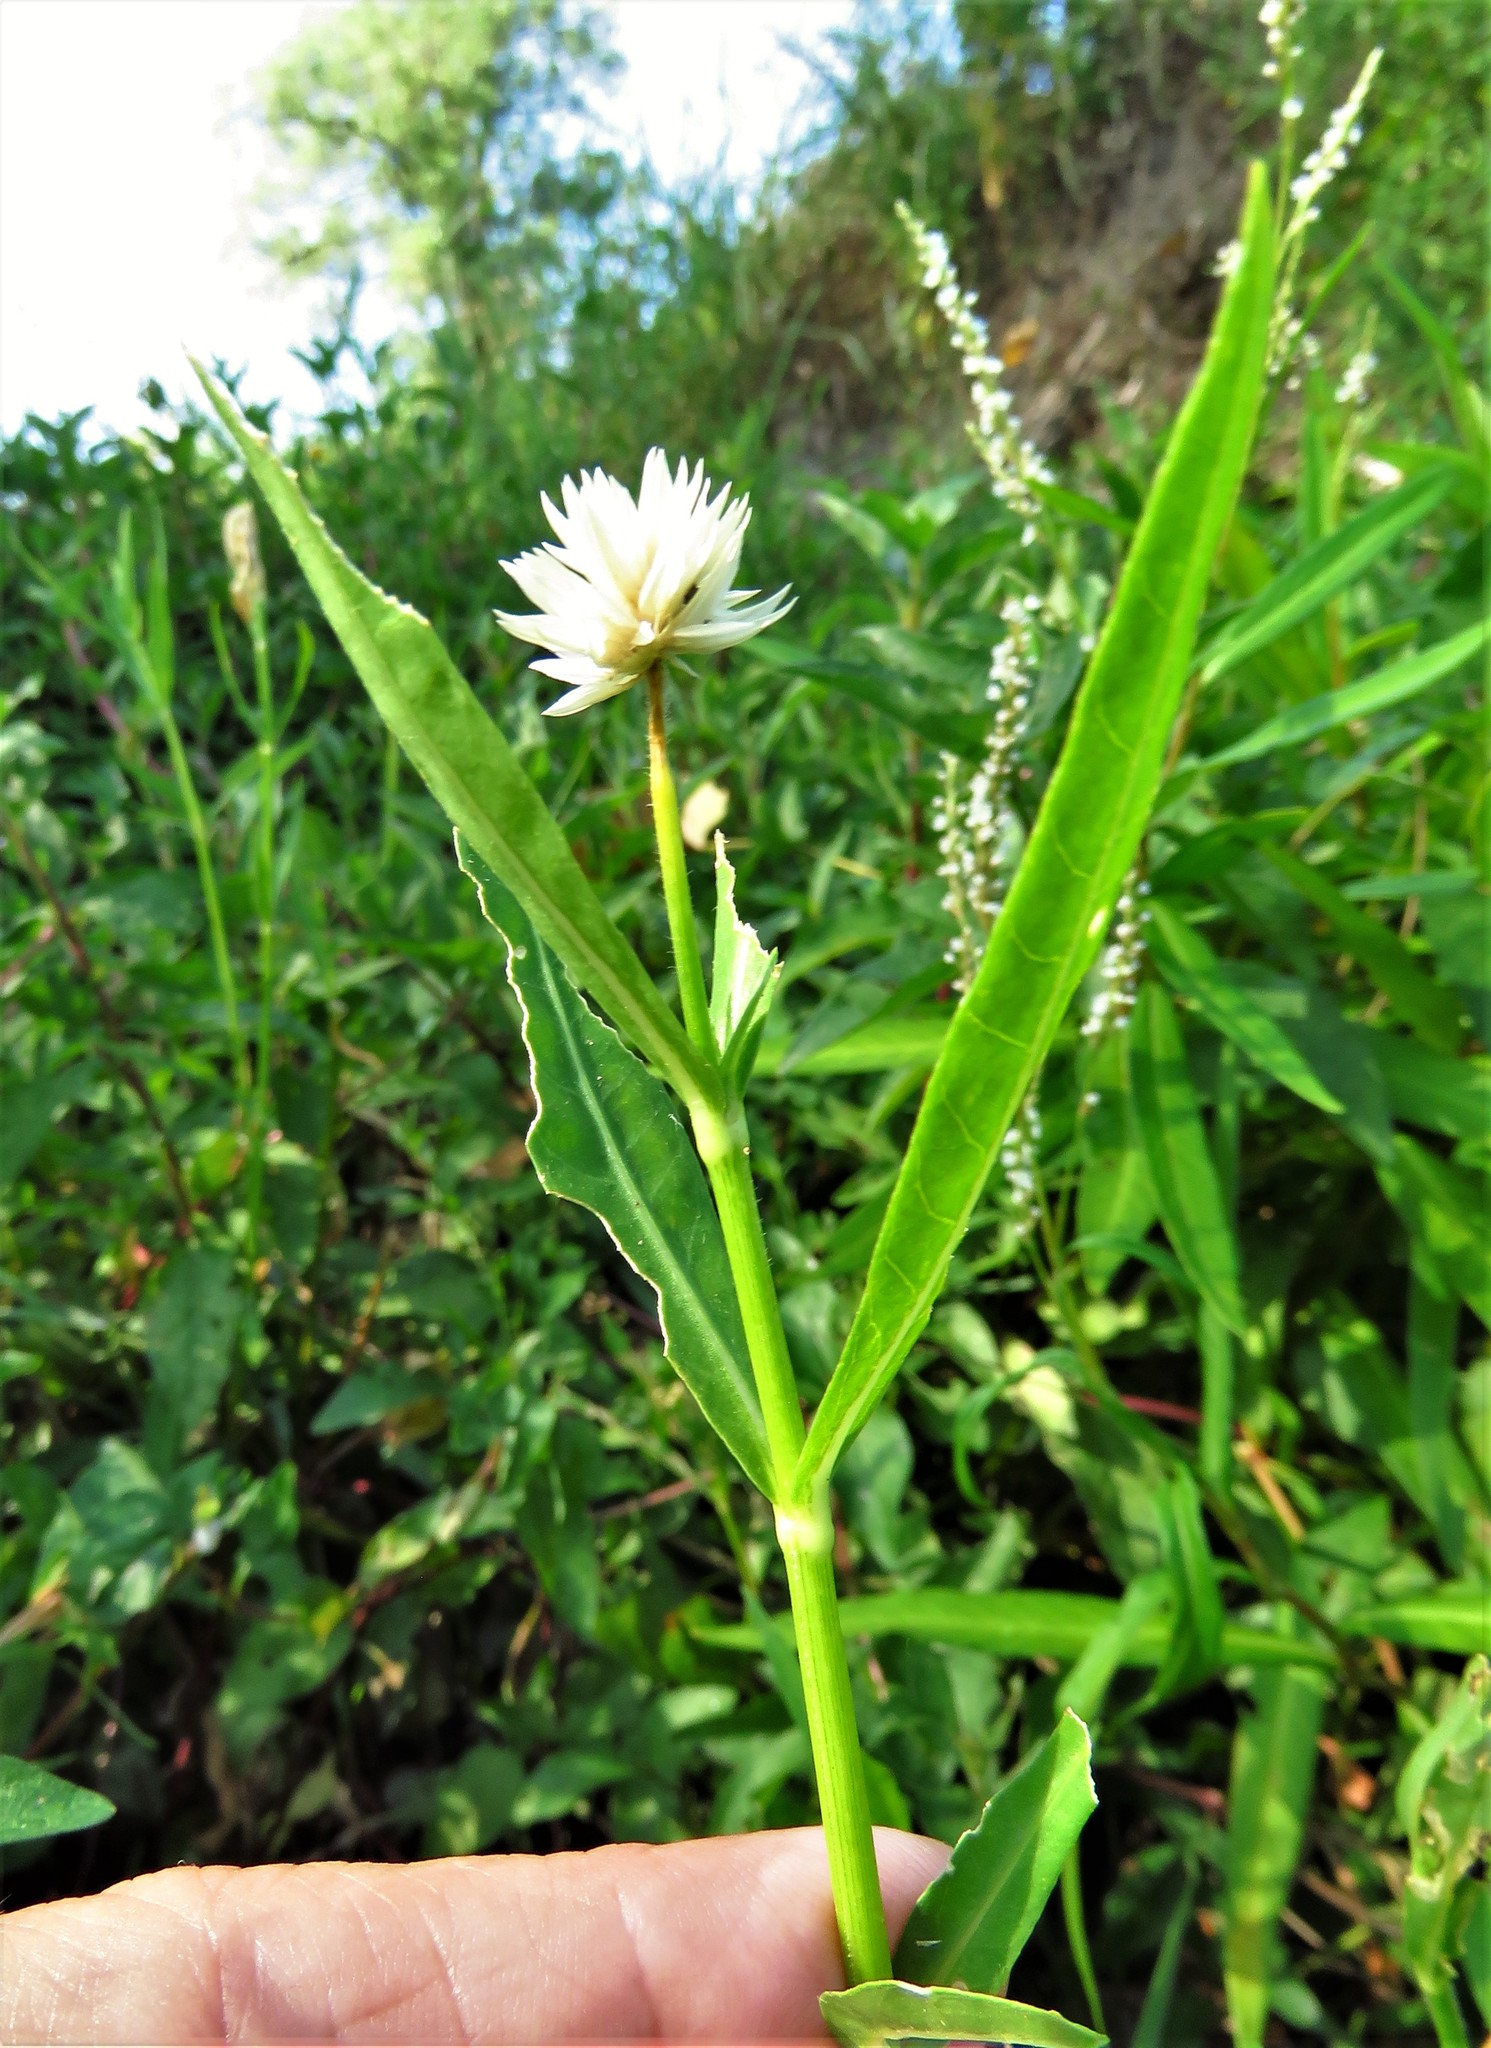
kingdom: Plantae
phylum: Tracheophyta
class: Magnoliopsida
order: Caryophyllales
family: Amaranthaceae
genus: Alternanthera
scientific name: Alternanthera philoxeroides
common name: Alligatorweed
